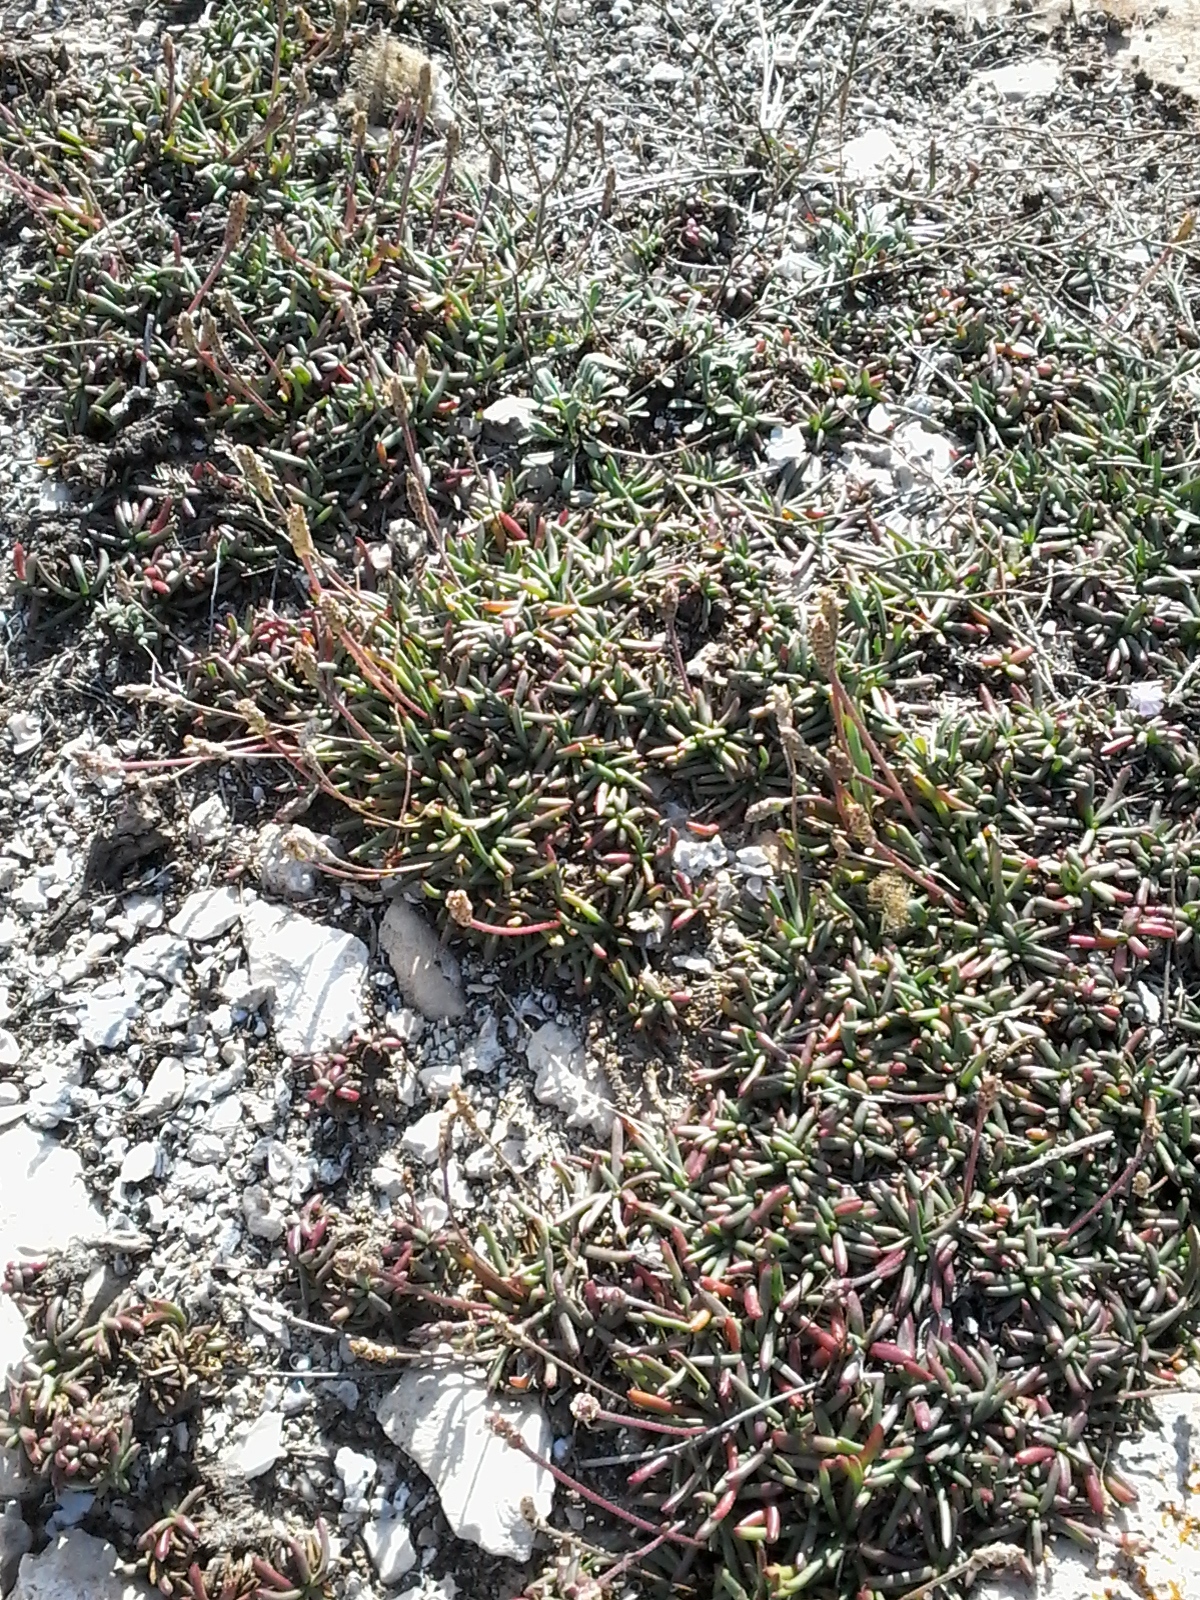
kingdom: Plantae
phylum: Tracheophyta
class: Magnoliopsida
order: Lamiales
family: Plantaginaceae
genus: Plantago
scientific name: Plantago crassifolia
